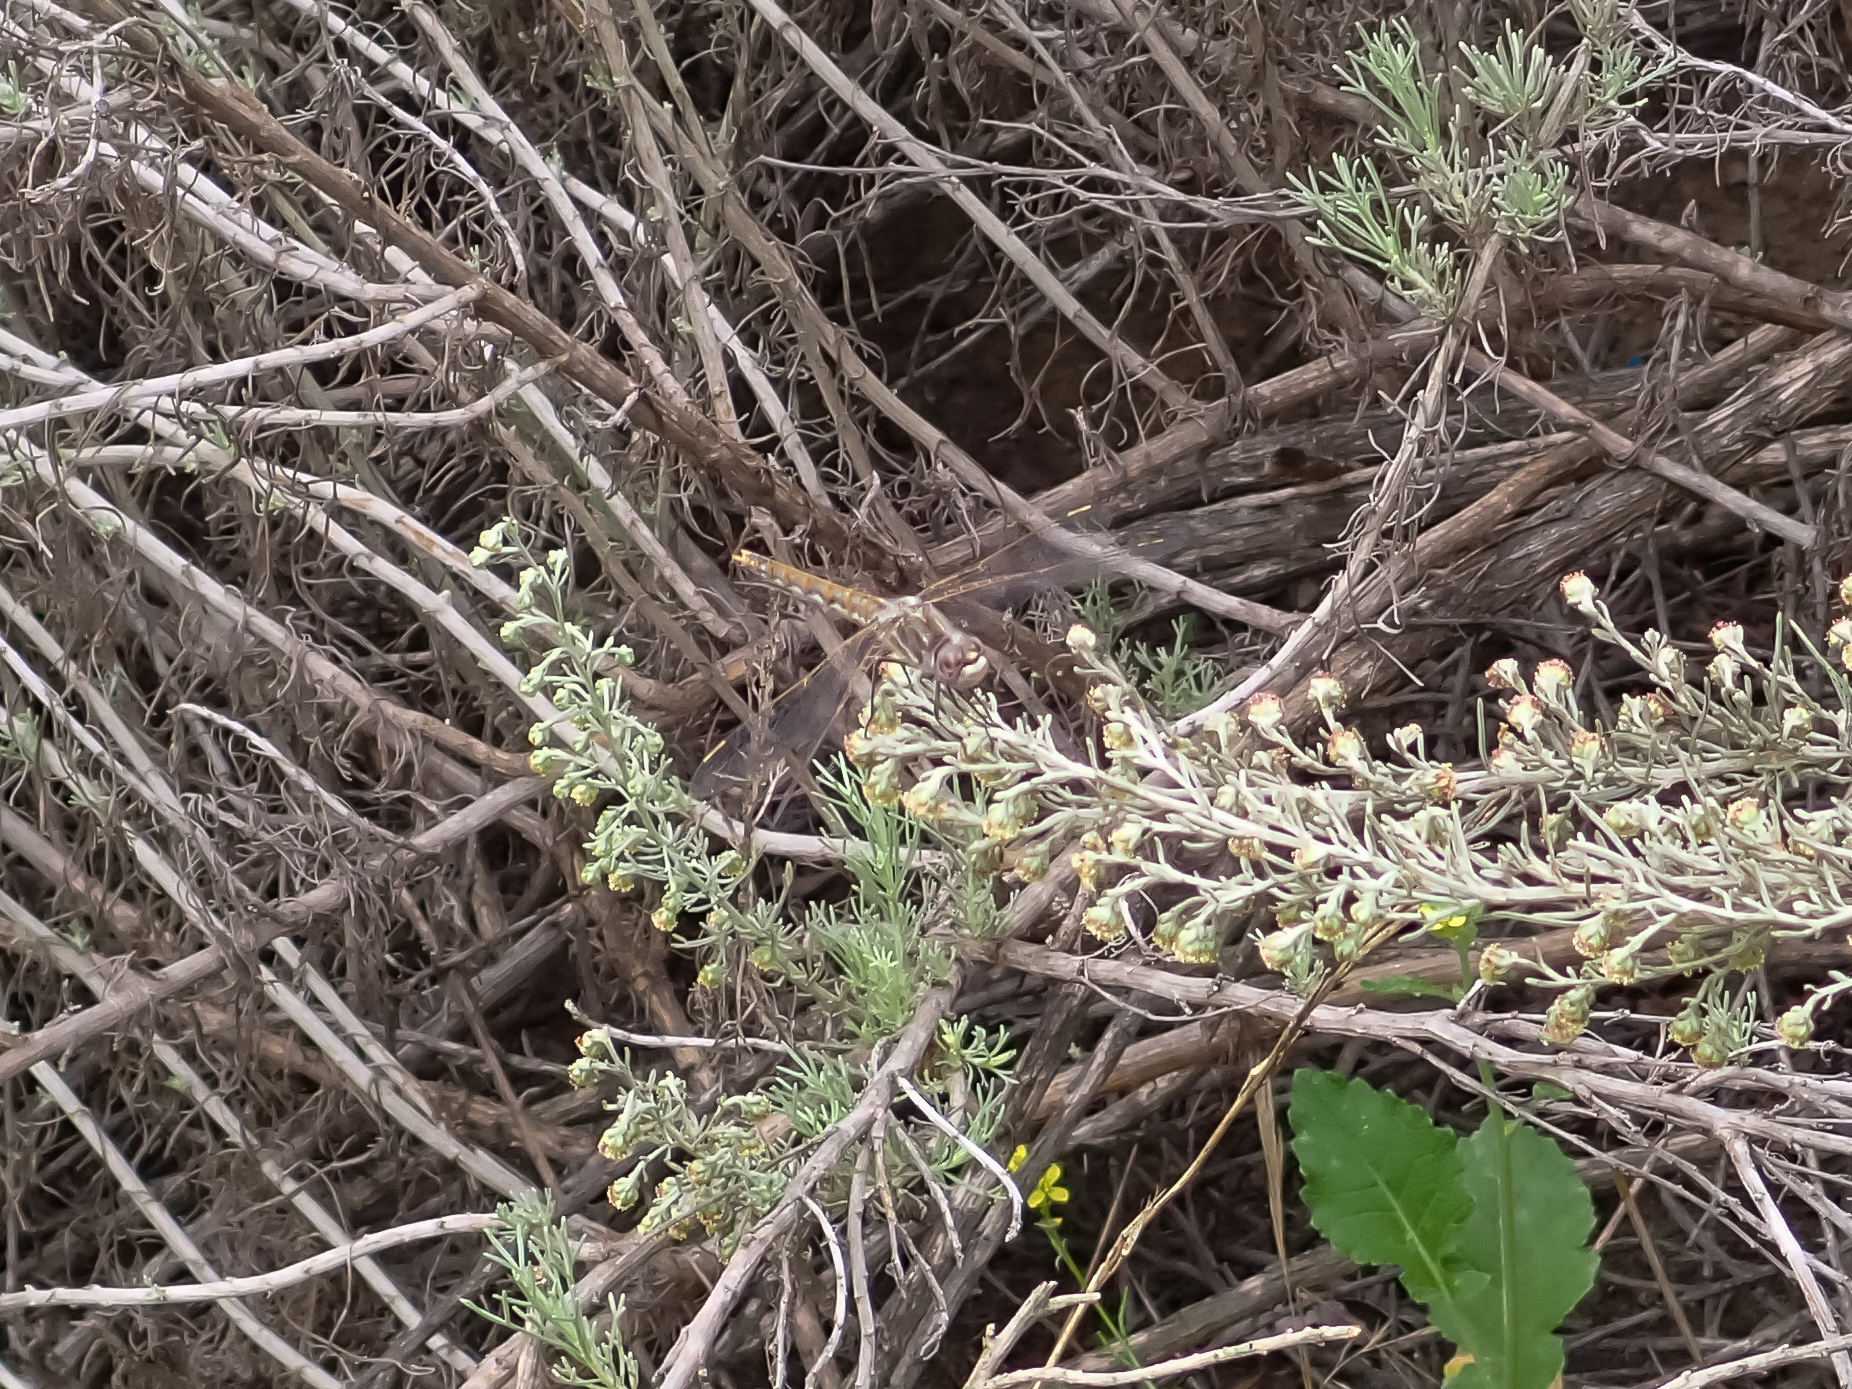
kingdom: Animalia
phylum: Arthropoda
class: Insecta
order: Odonata
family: Libellulidae
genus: Sympetrum
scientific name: Sympetrum corruptum
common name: Variegated meadowhawk
